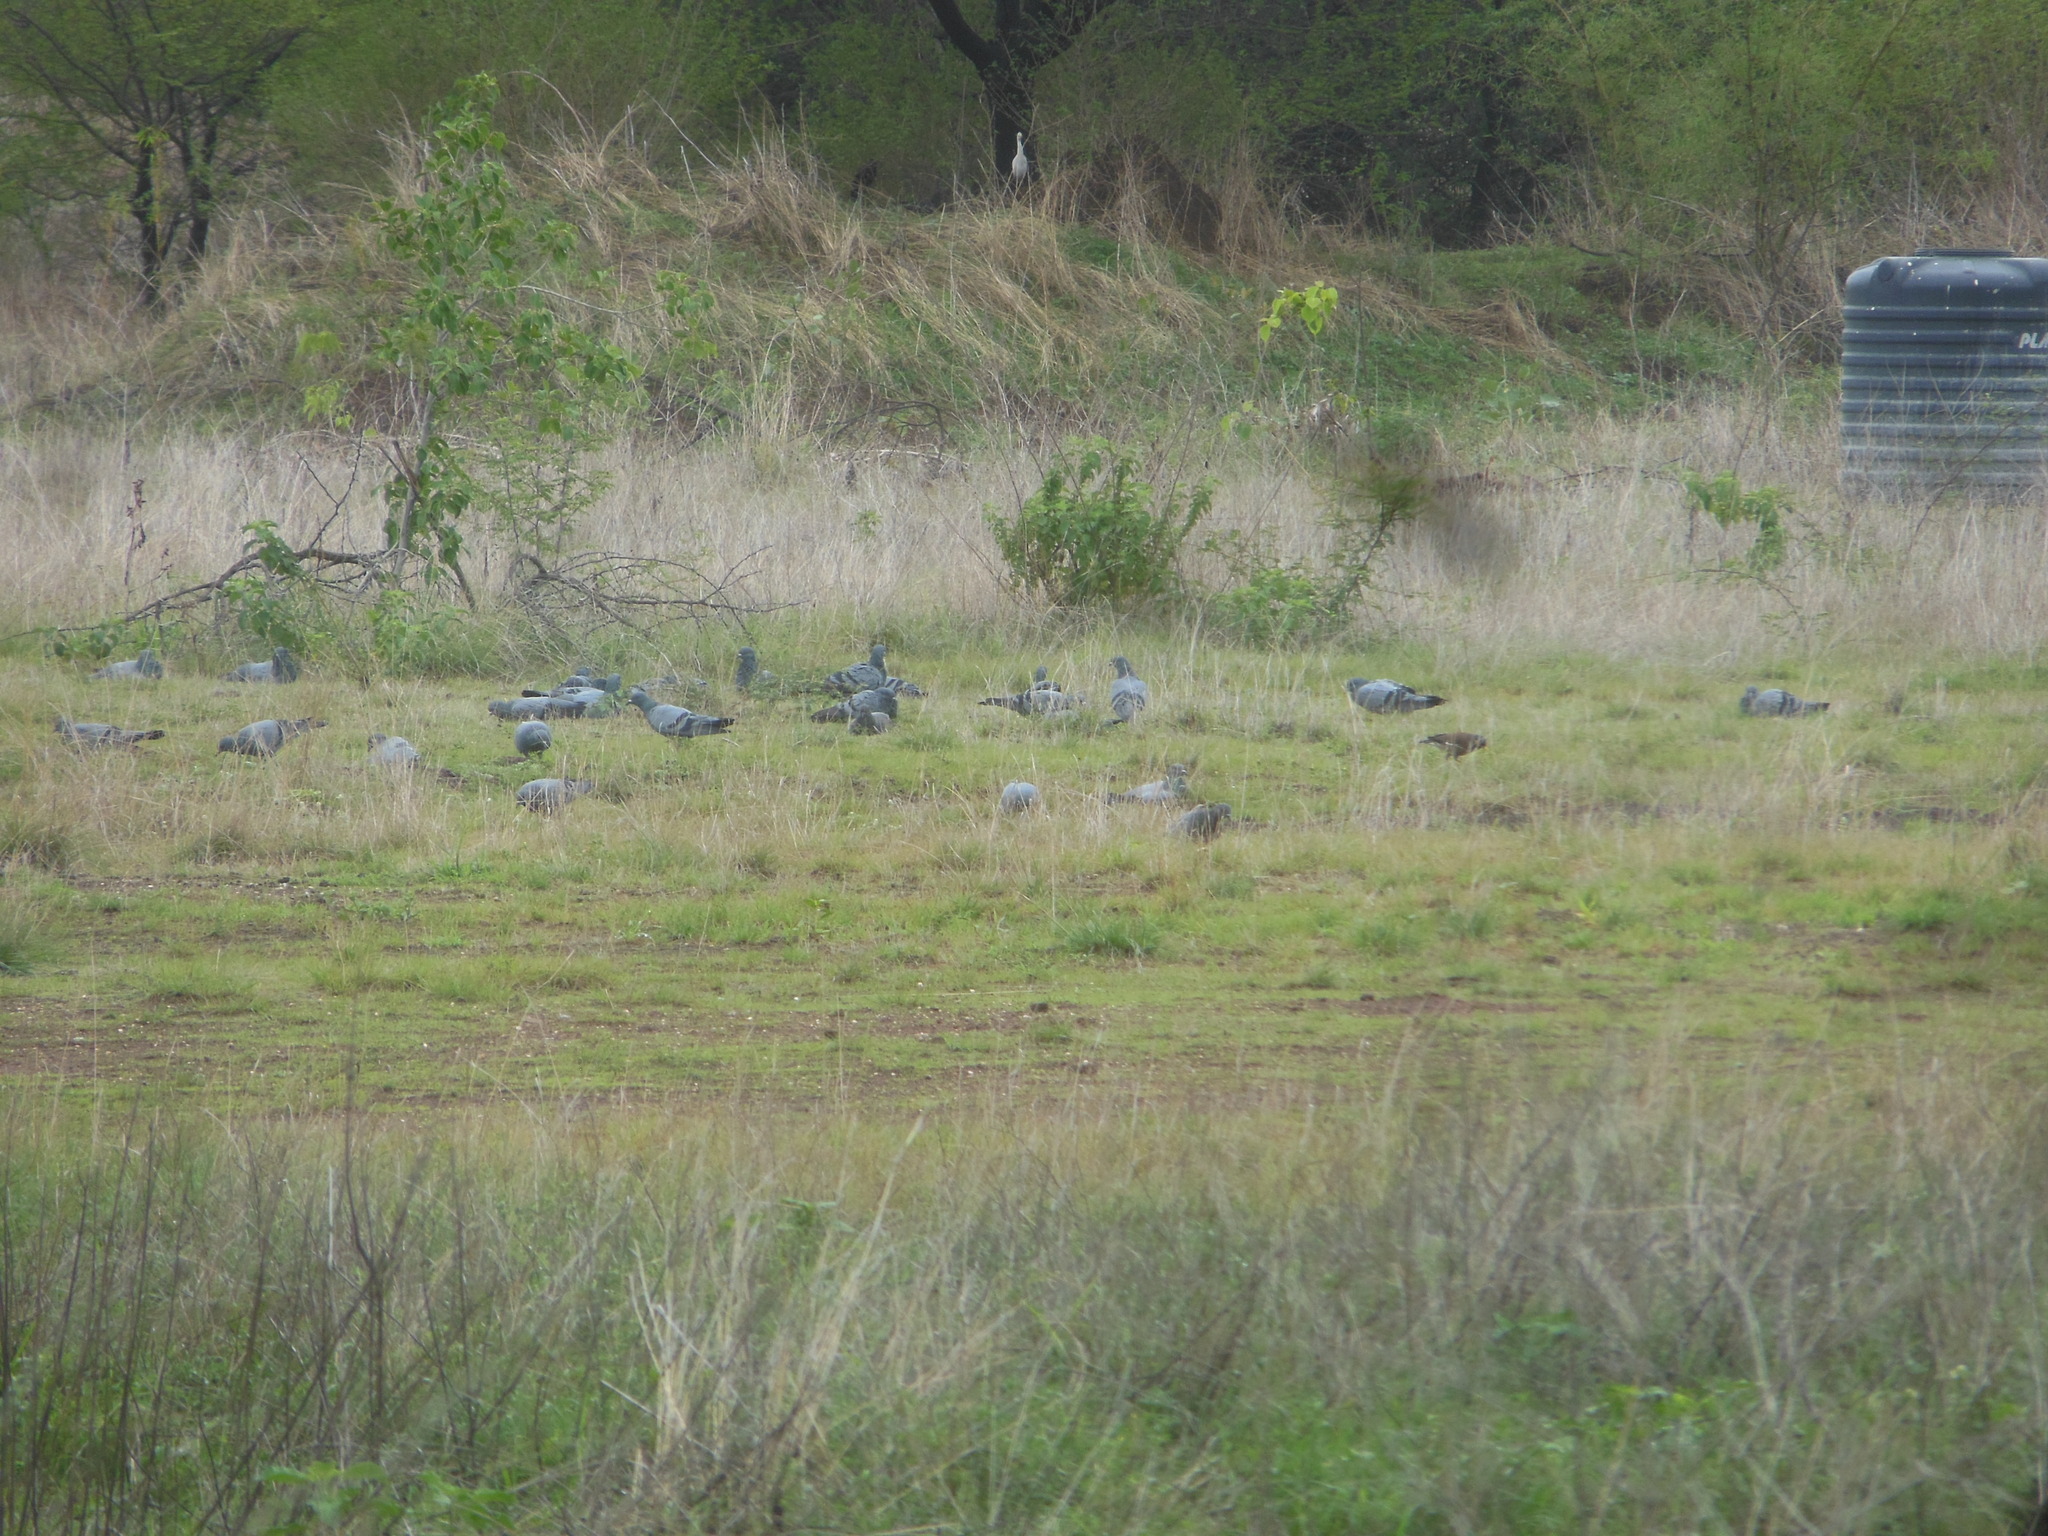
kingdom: Animalia
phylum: Chordata
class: Aves
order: Columbiformes
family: Columbidae
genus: Columba
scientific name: Columba livia
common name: Rock pigeon
